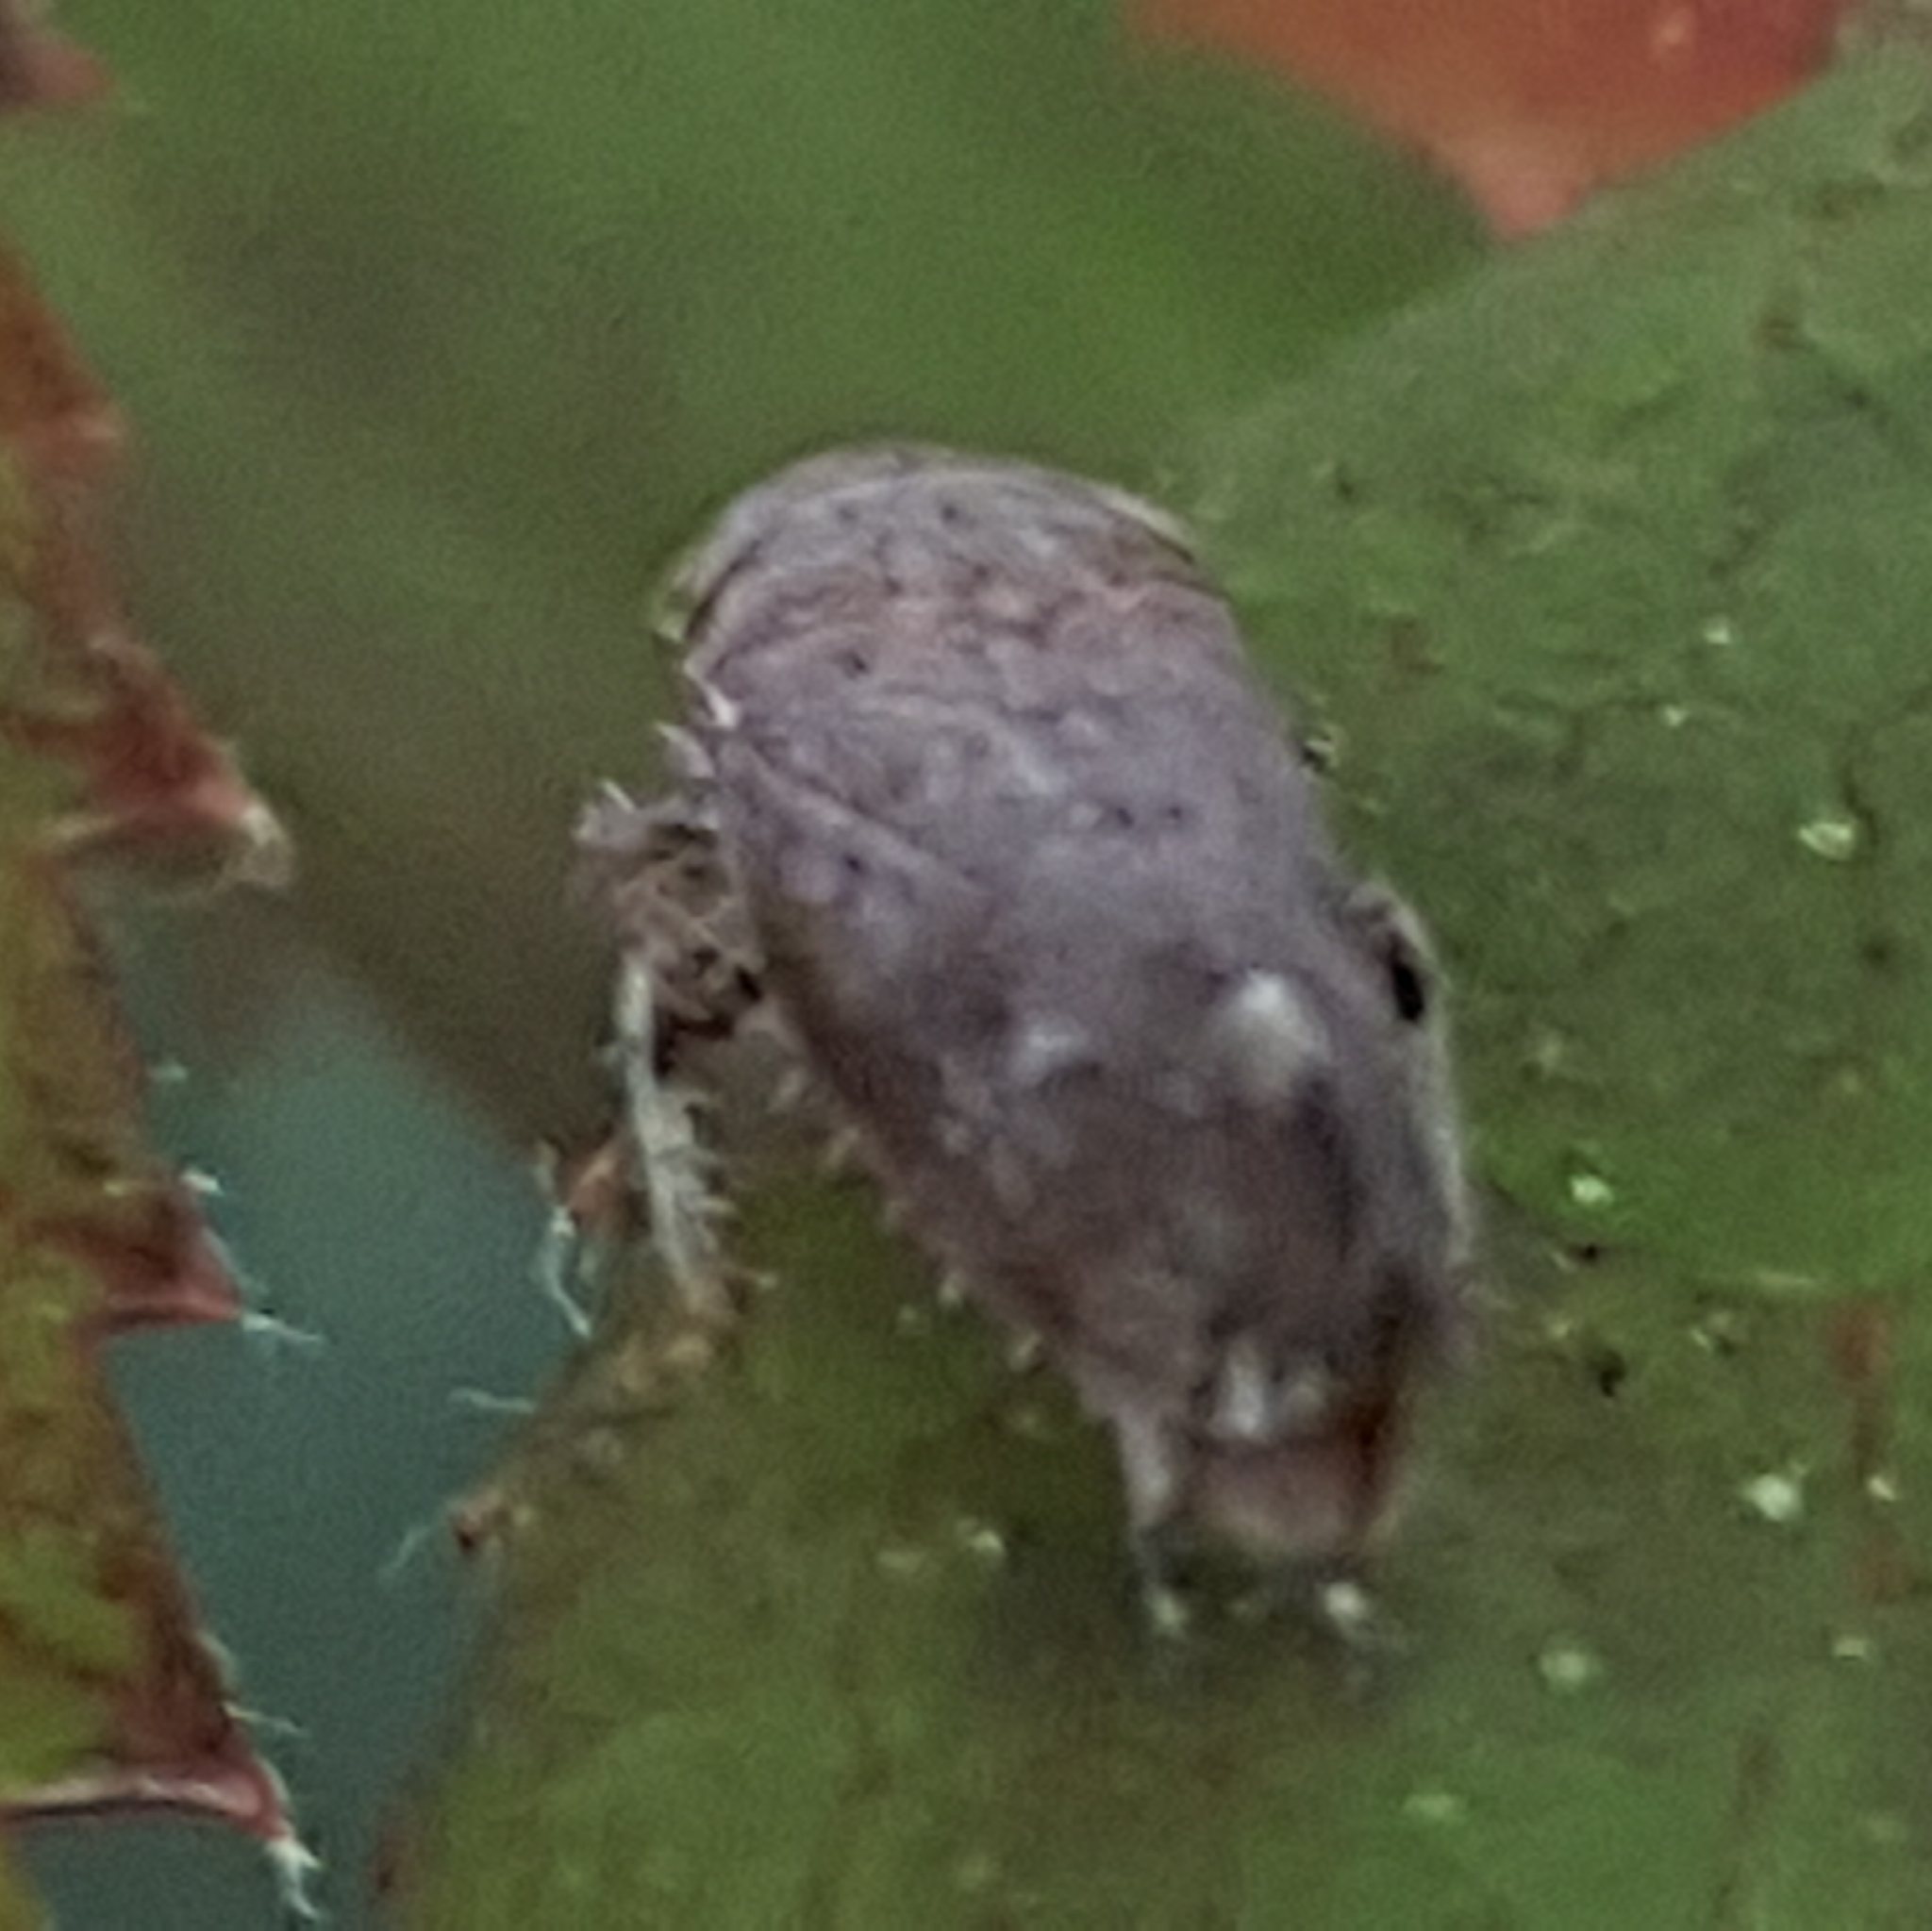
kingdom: Animalia
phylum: Arthropoda
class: Insecta
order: Hemiptera
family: Cicadellidae
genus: Fieberiella
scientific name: Fieberiella florii
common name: Flor’s leafhopper
